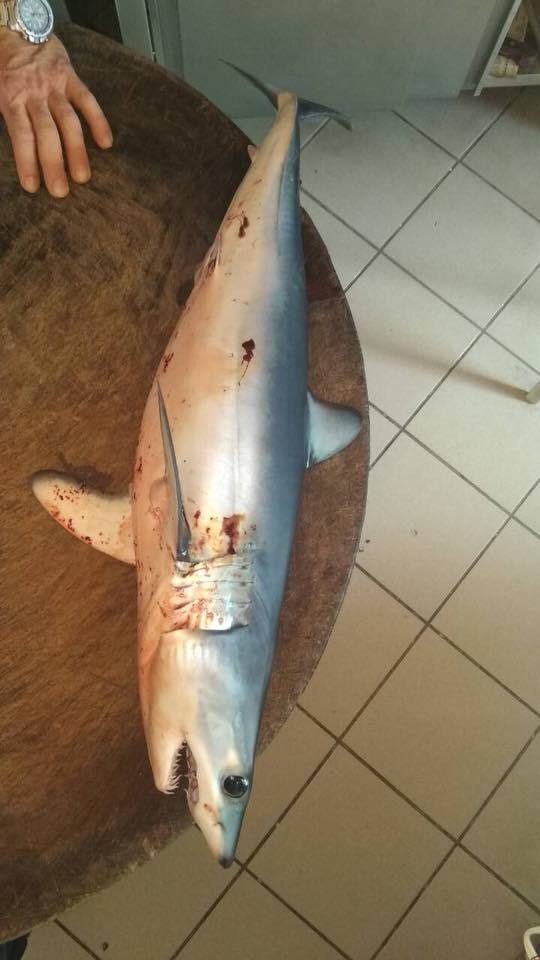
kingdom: Animalia
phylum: Chordata
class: Elasmobranchii
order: Lamniformes
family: Lamnidae
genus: Isurus
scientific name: Isurus oxyrinchus
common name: Shortfin mako
